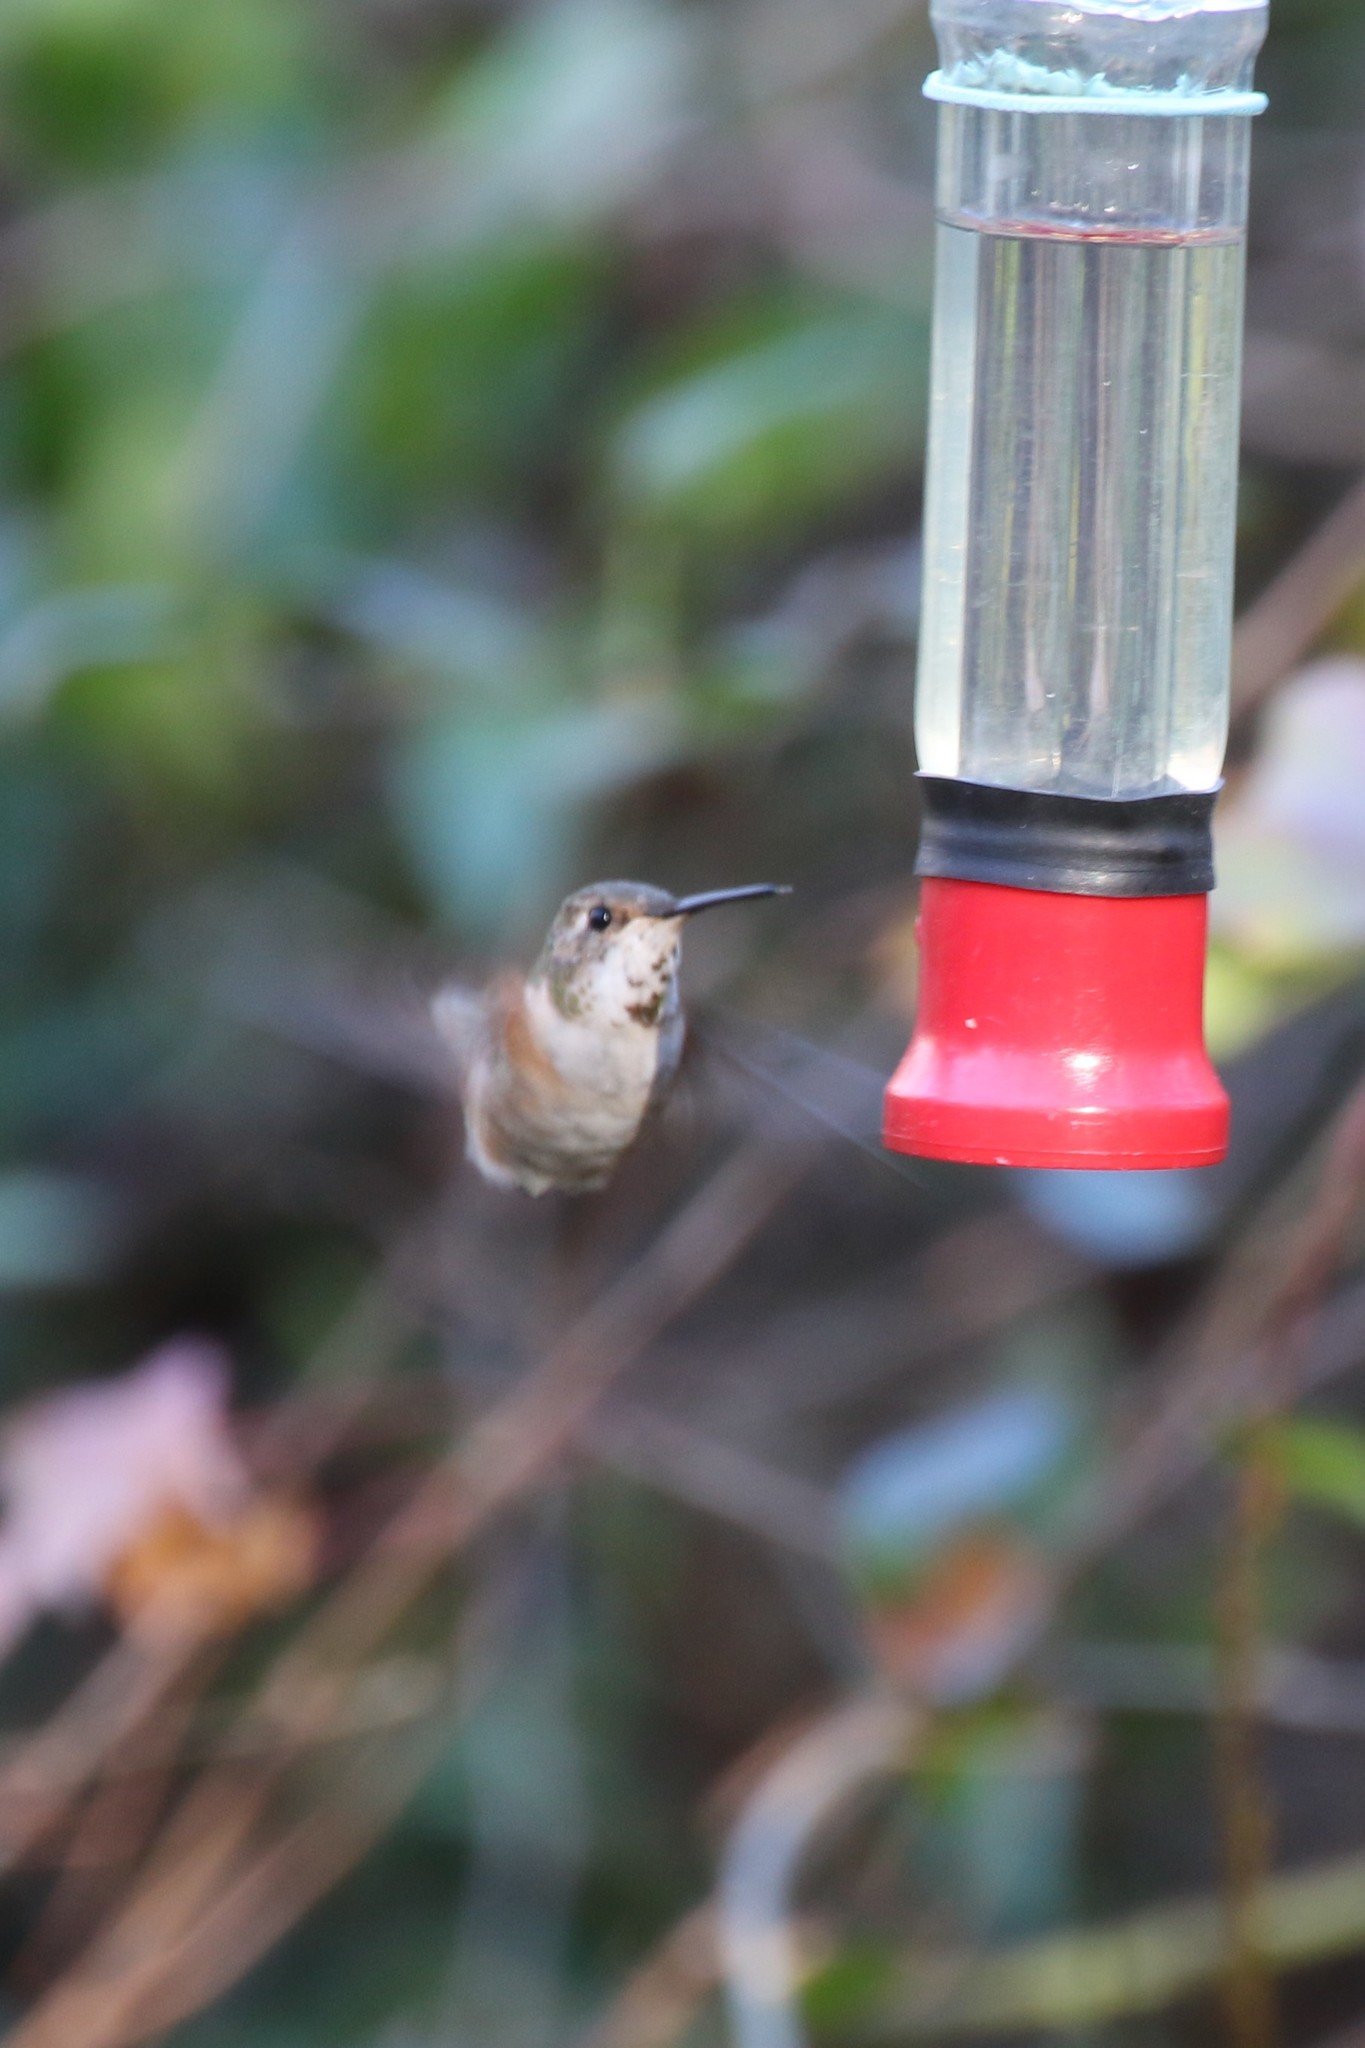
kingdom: Animalia
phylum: Chordata
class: Aves
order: Apodiformes
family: Trochilidae
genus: Selasphorus
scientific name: Selasphorus
